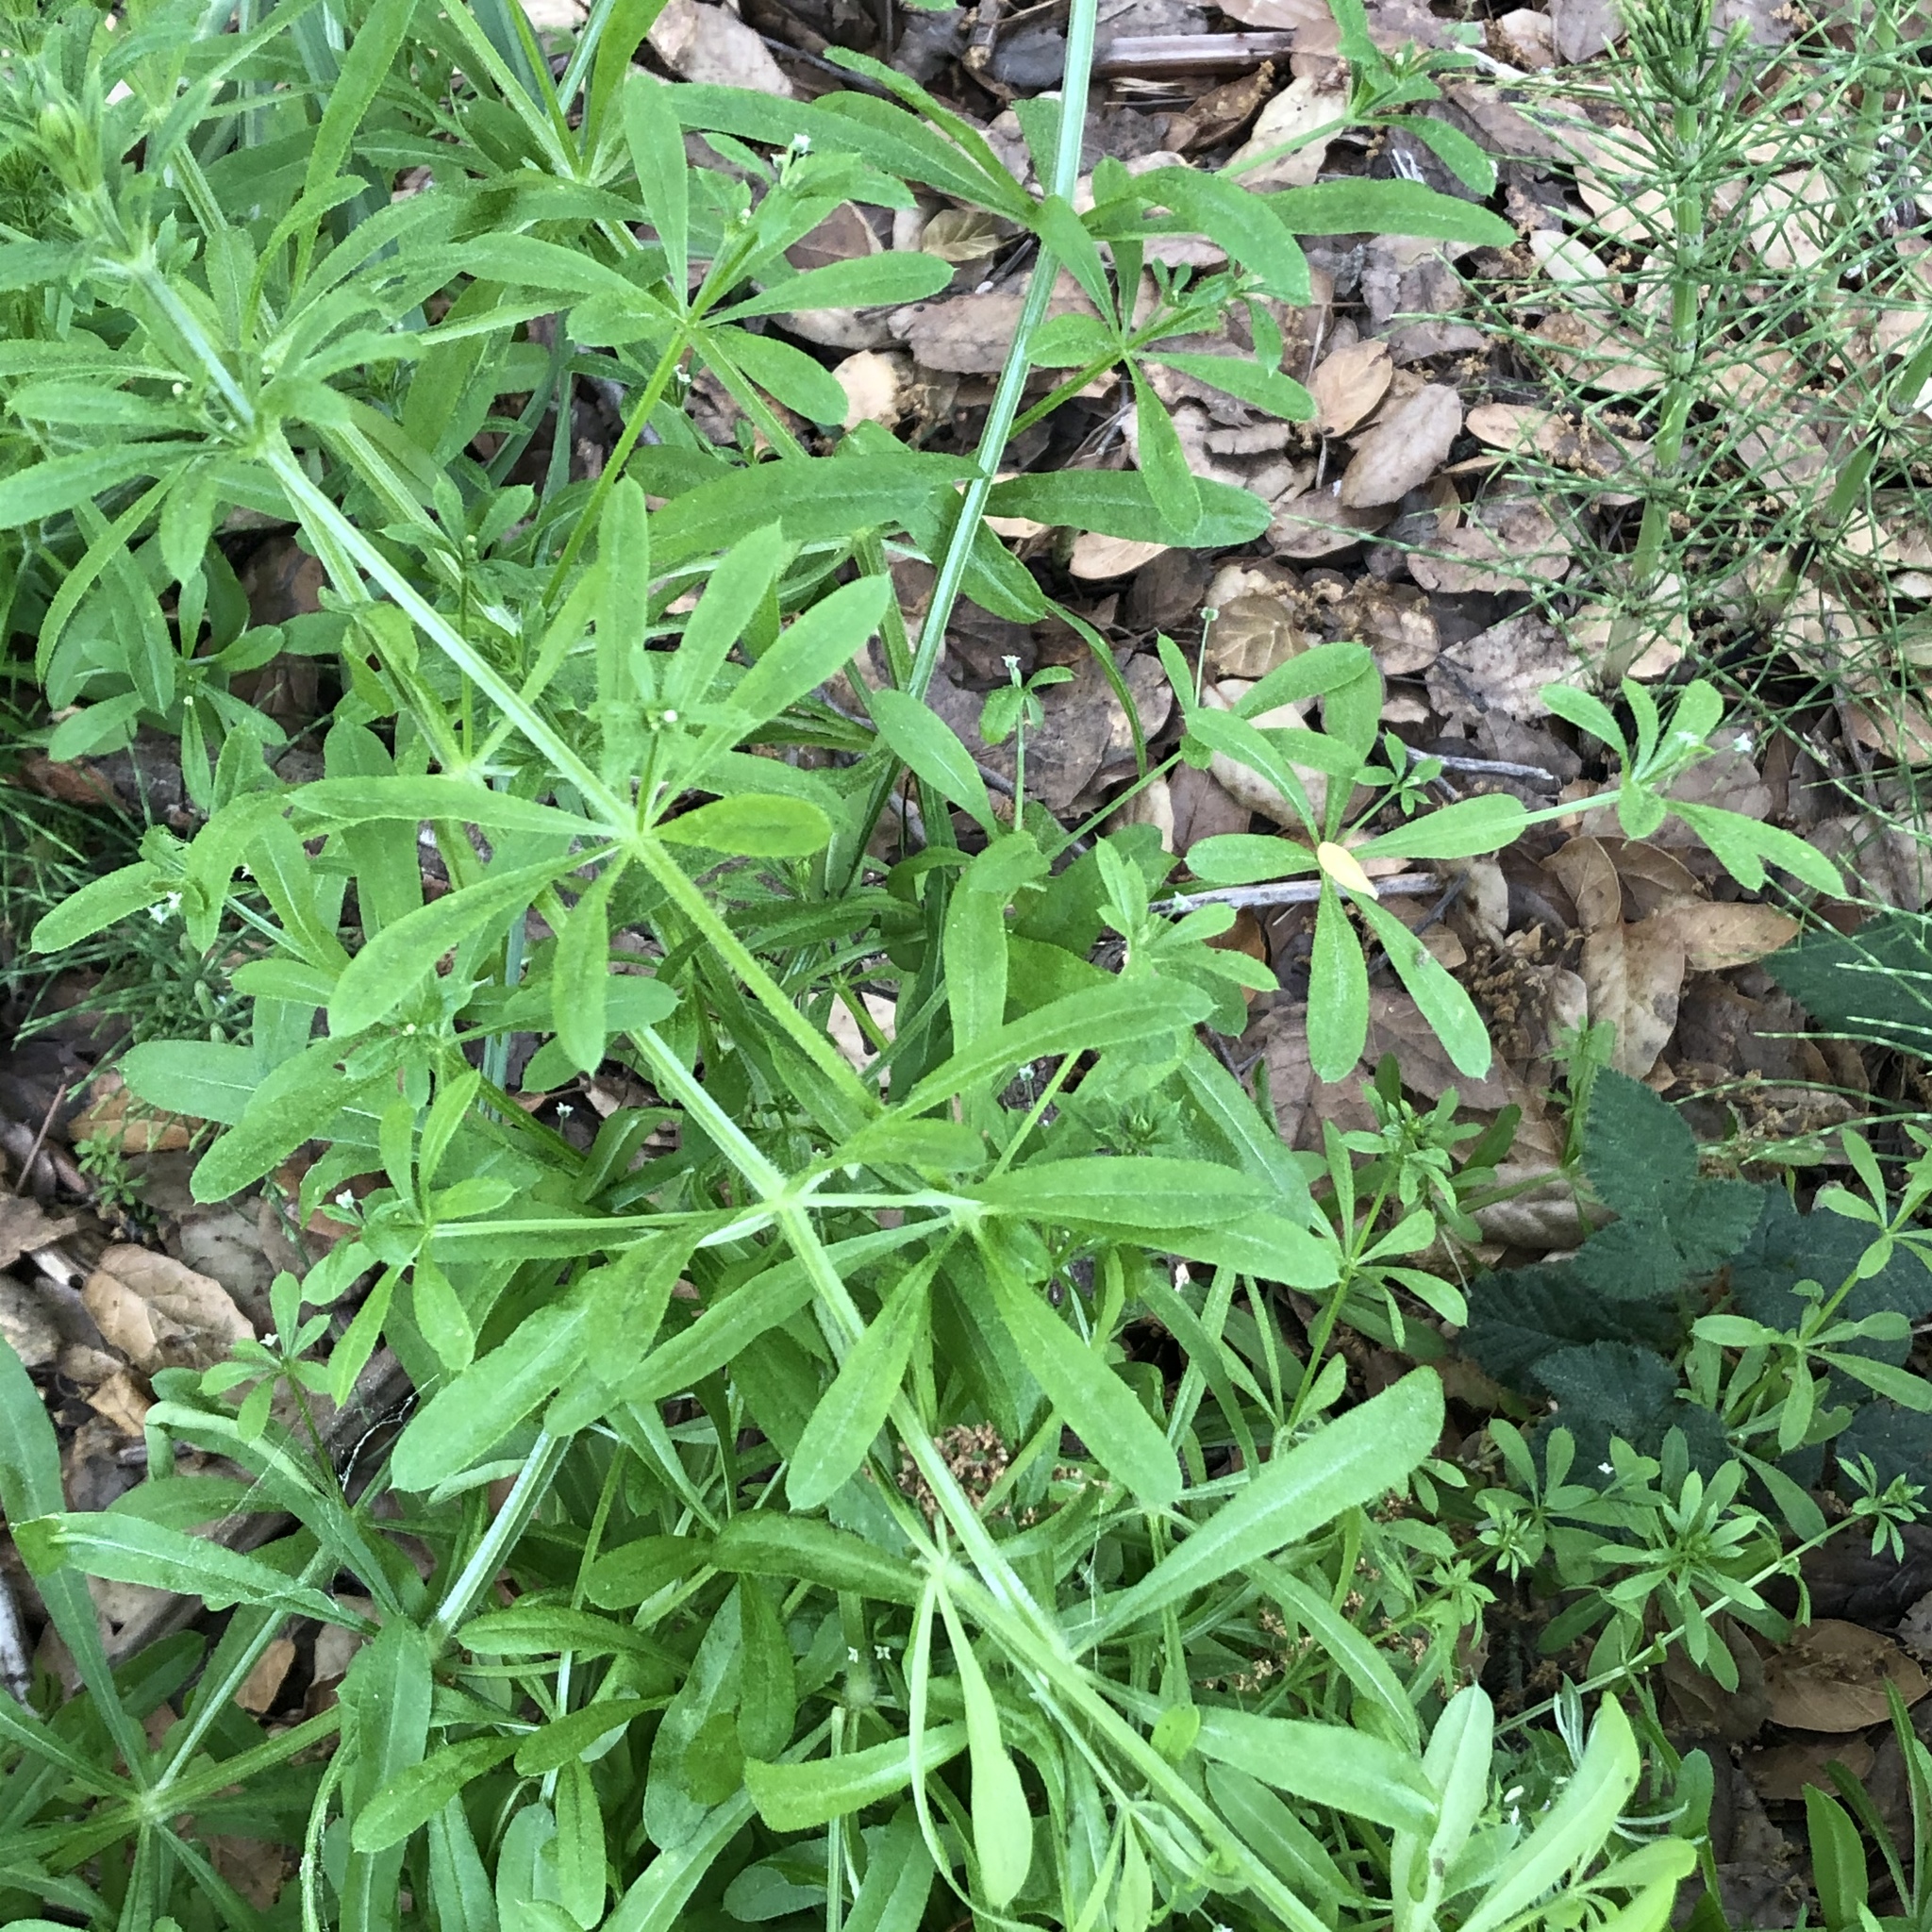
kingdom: Plantae
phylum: Tracheophyta
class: Magnoliopsida
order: Gentianales
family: Rubiaceae
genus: Galium
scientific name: Galium aparine
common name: Cleavers
